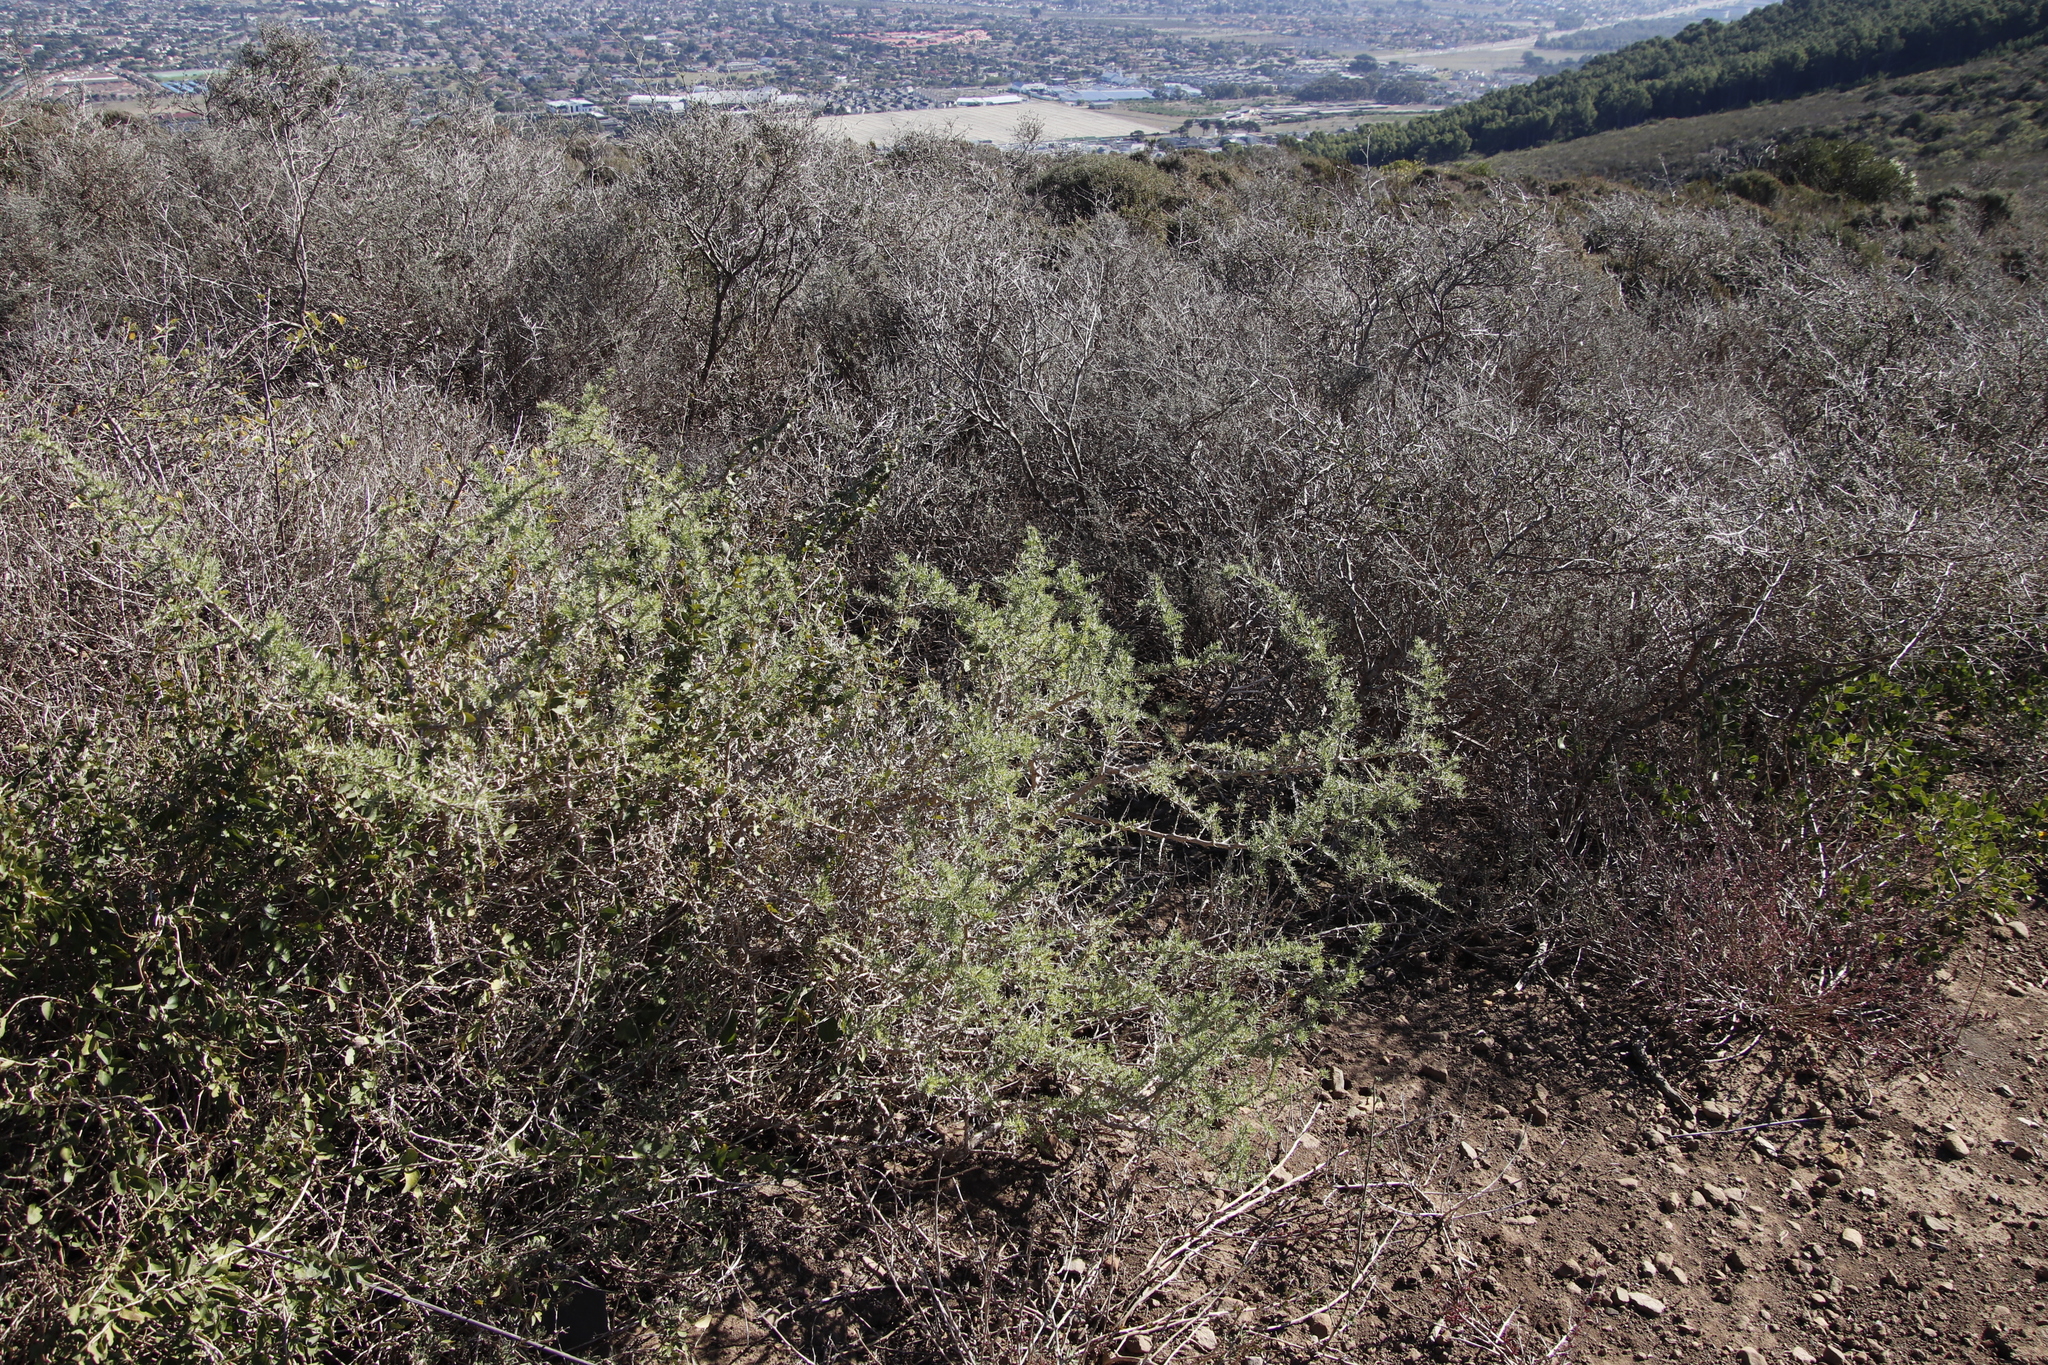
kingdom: Plantae
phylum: Tracheophyta
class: Magnoliopsida
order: Solanales
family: Solanaceae
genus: Lycium
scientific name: Lycium afrum
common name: Kaffir boxthorn
